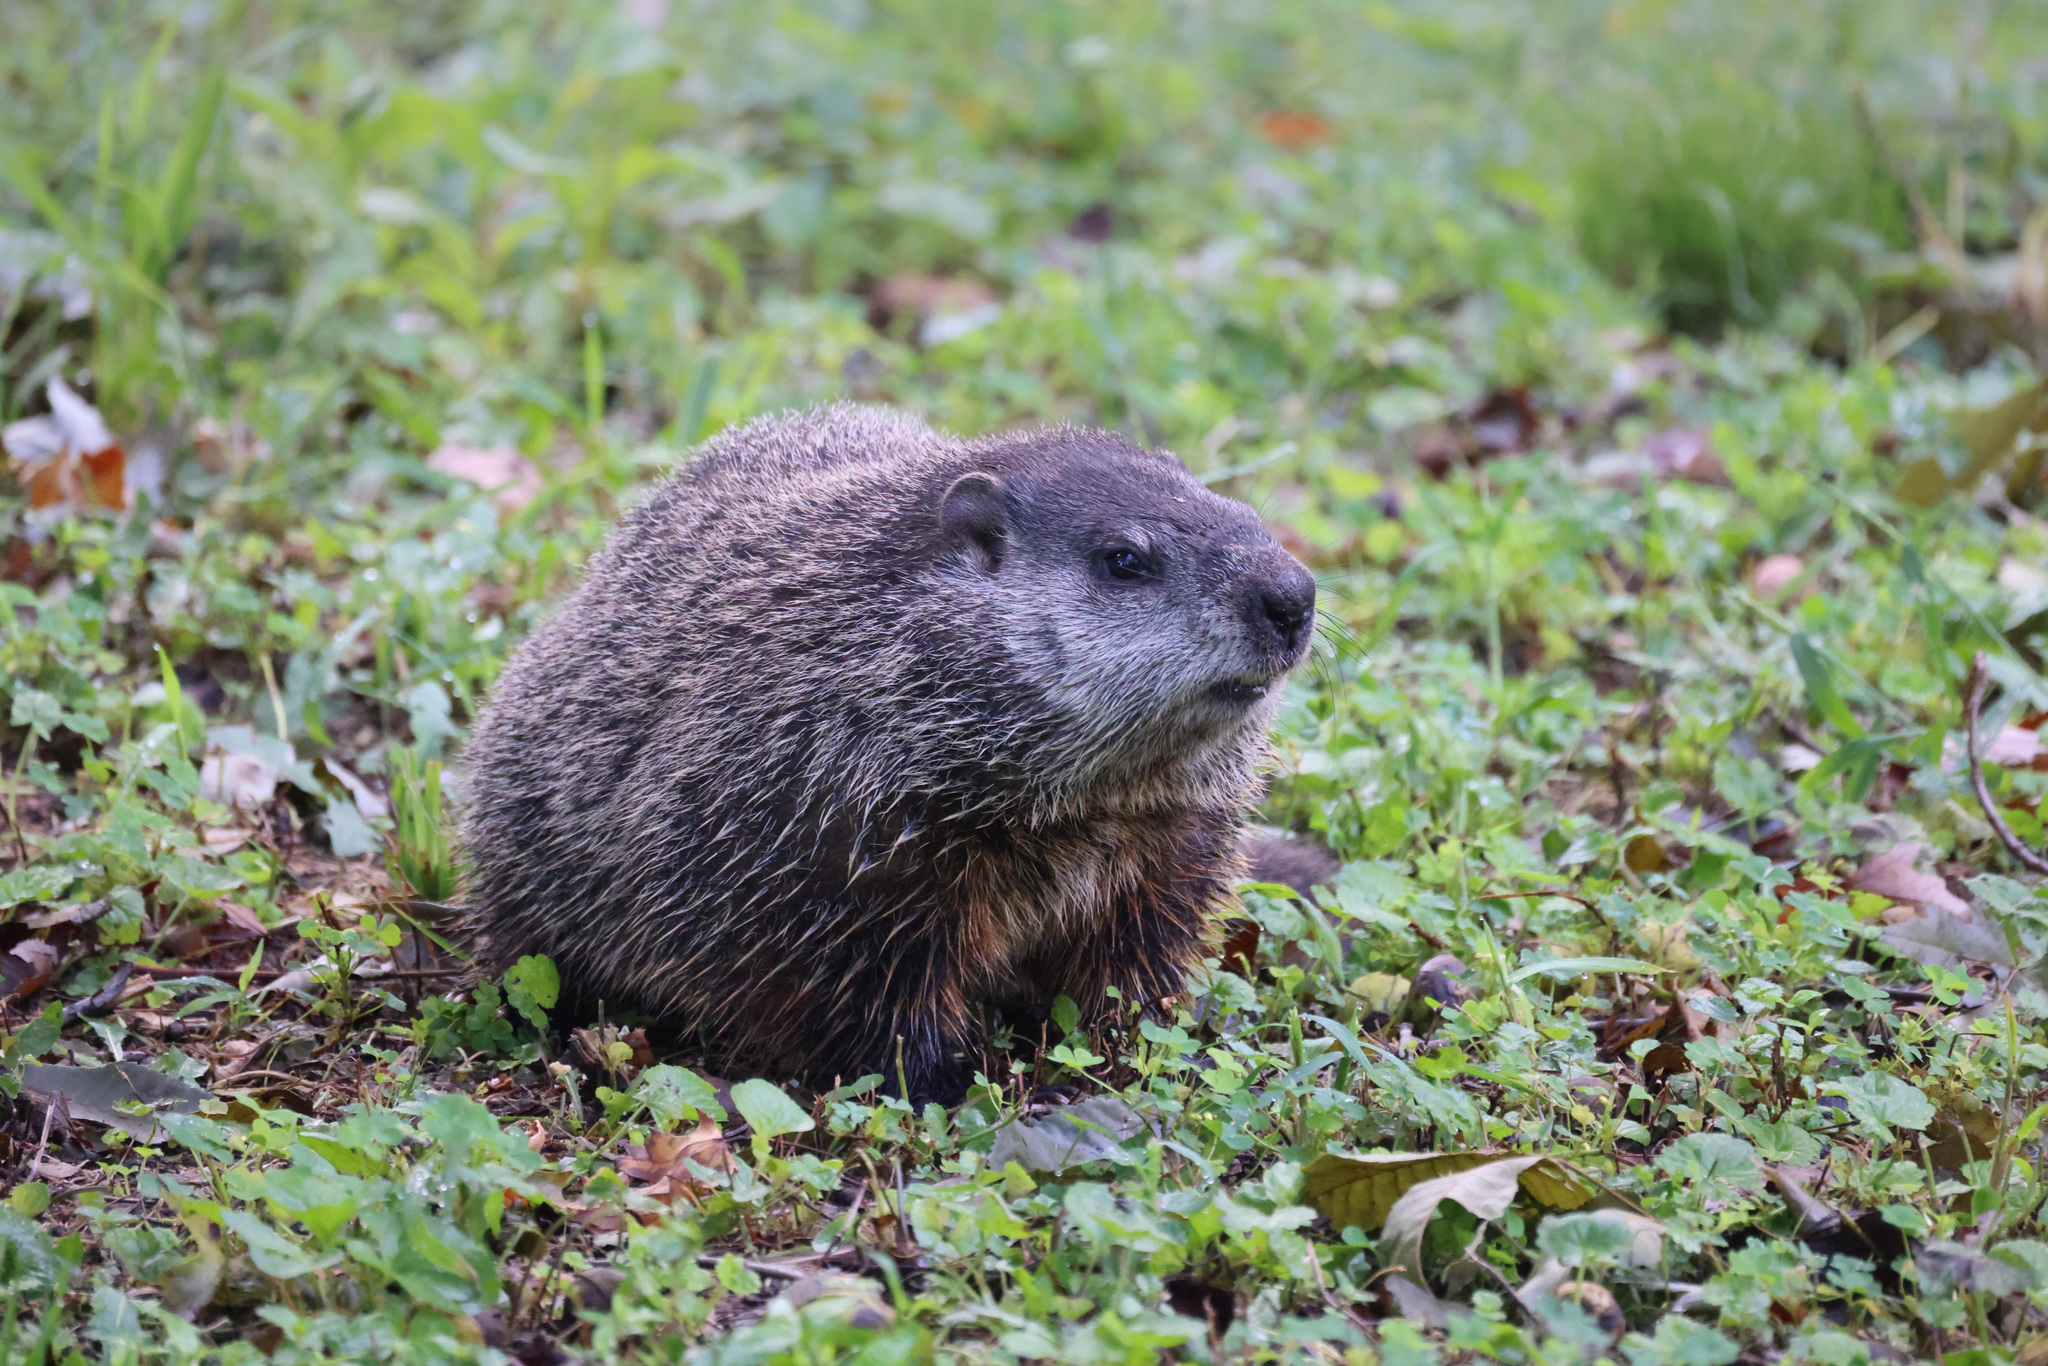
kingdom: Animalia
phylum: Chordata
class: Mammalia
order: Rodentia
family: Sciuridae
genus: Marmota
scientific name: Marmota monax
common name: Groundhog
